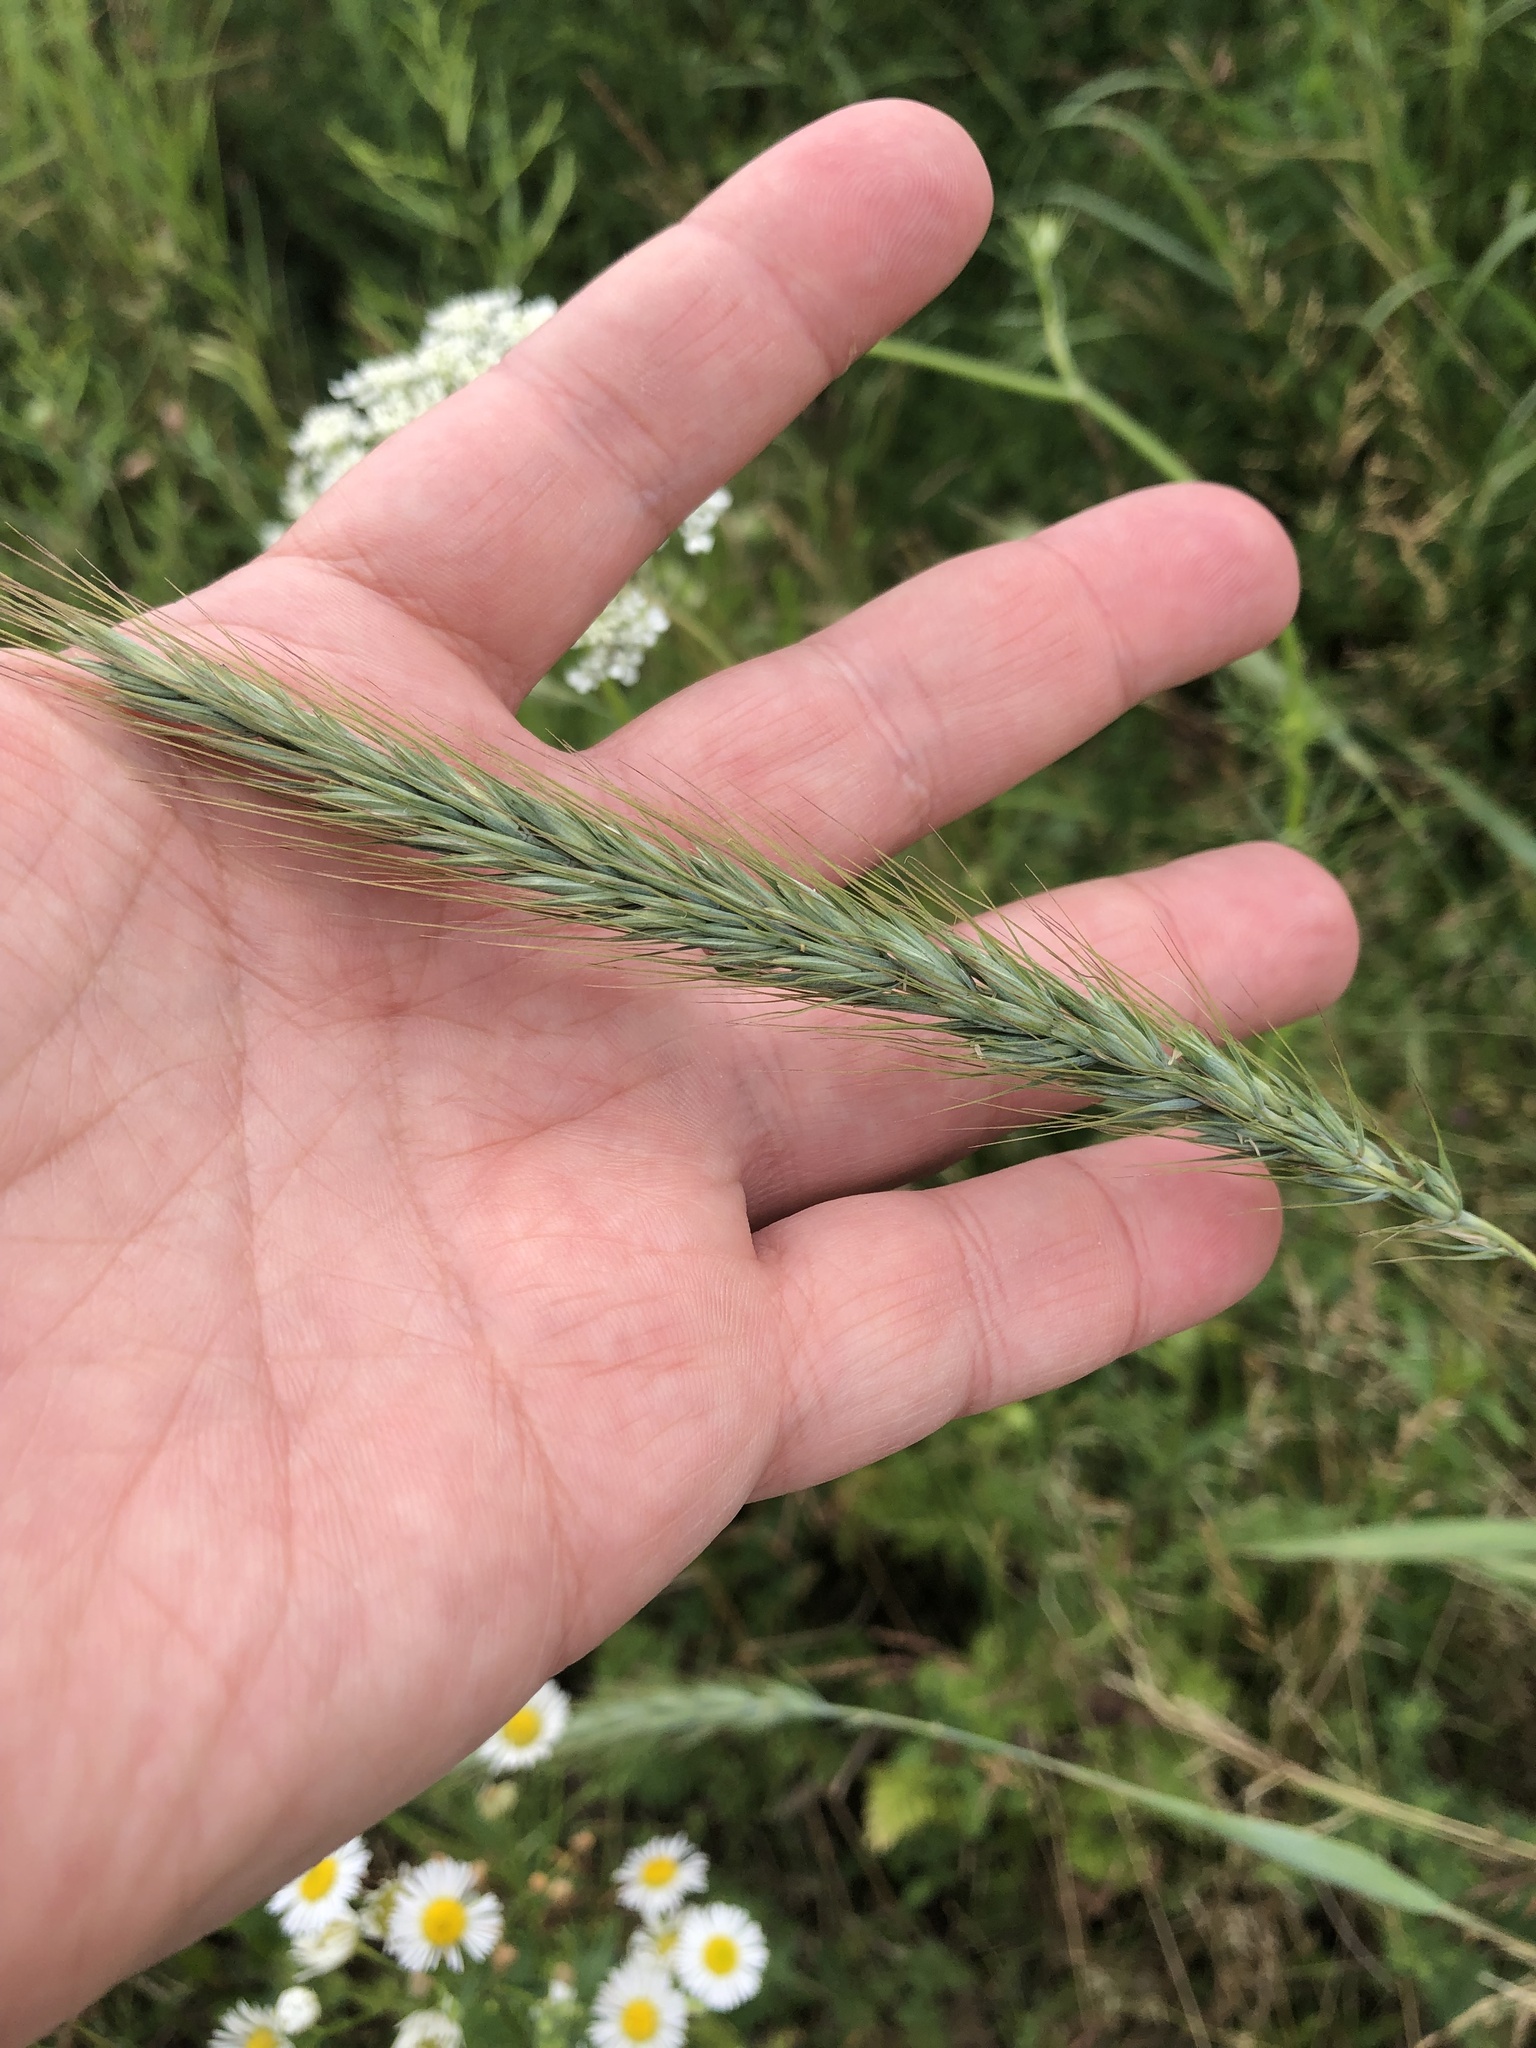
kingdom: Plantae
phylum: Tracheophyta
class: Liliopsida
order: Poales
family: Poaceae
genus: Elymus
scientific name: Elymus riparius
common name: Eastern riverbank wild rye
